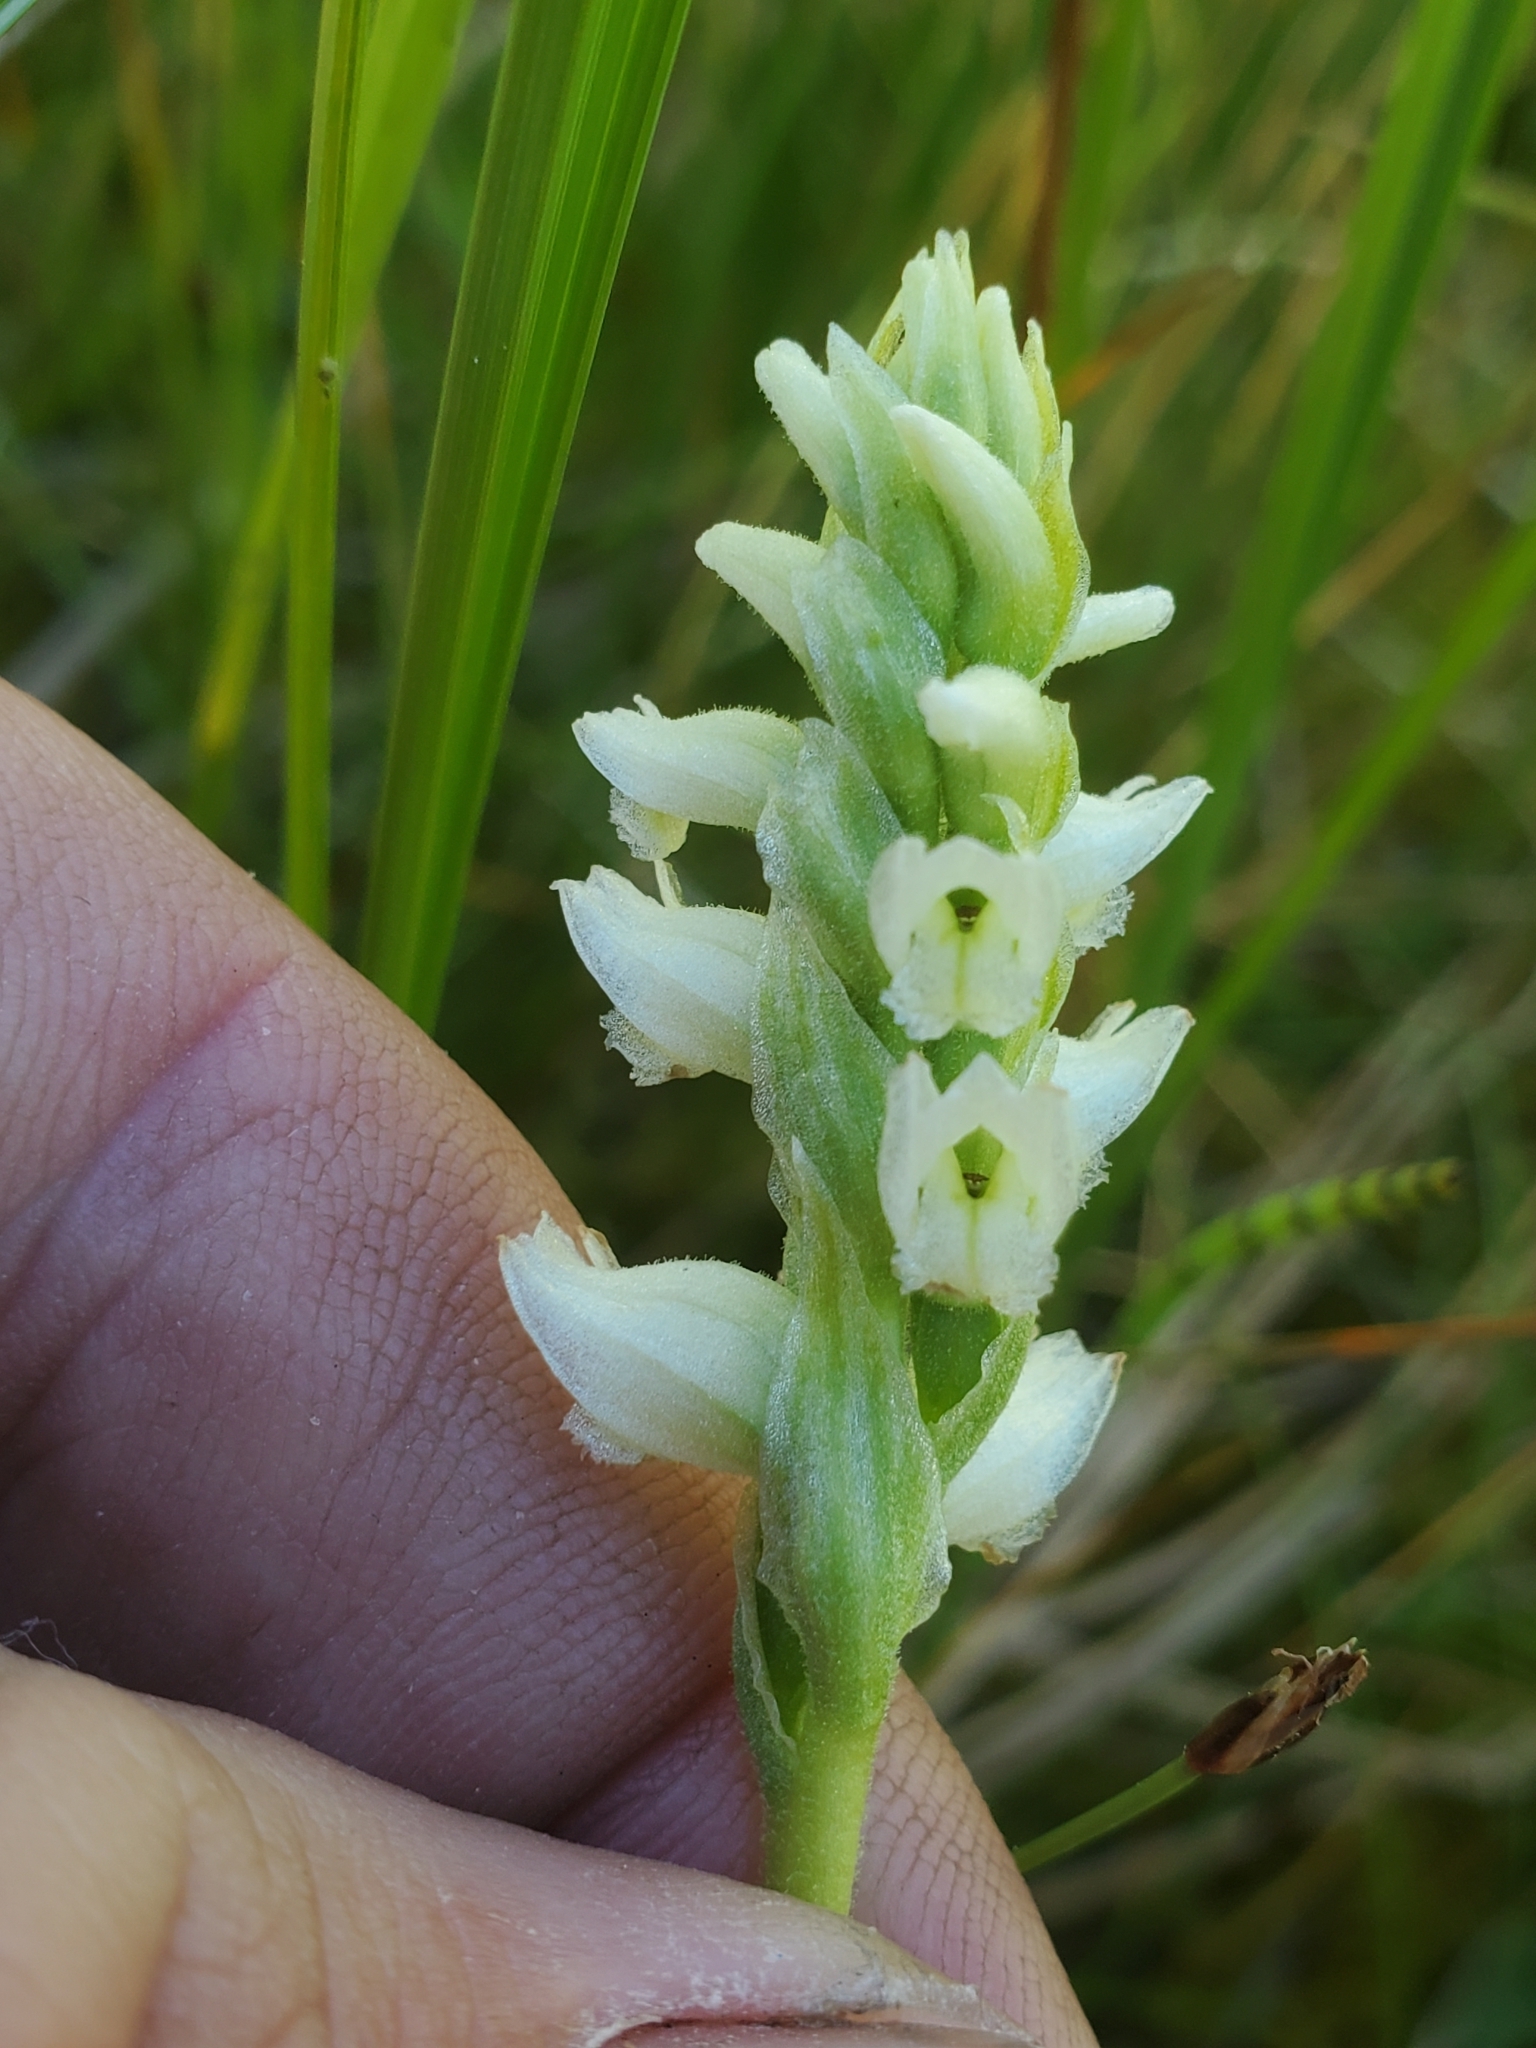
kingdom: Plantae
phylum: Tracheophyta
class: Liliopsida
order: Asparagales
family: Orchidaceae
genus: Spiranthes
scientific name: Spiranthes romanzoffiana
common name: Irish lady's-tresses
